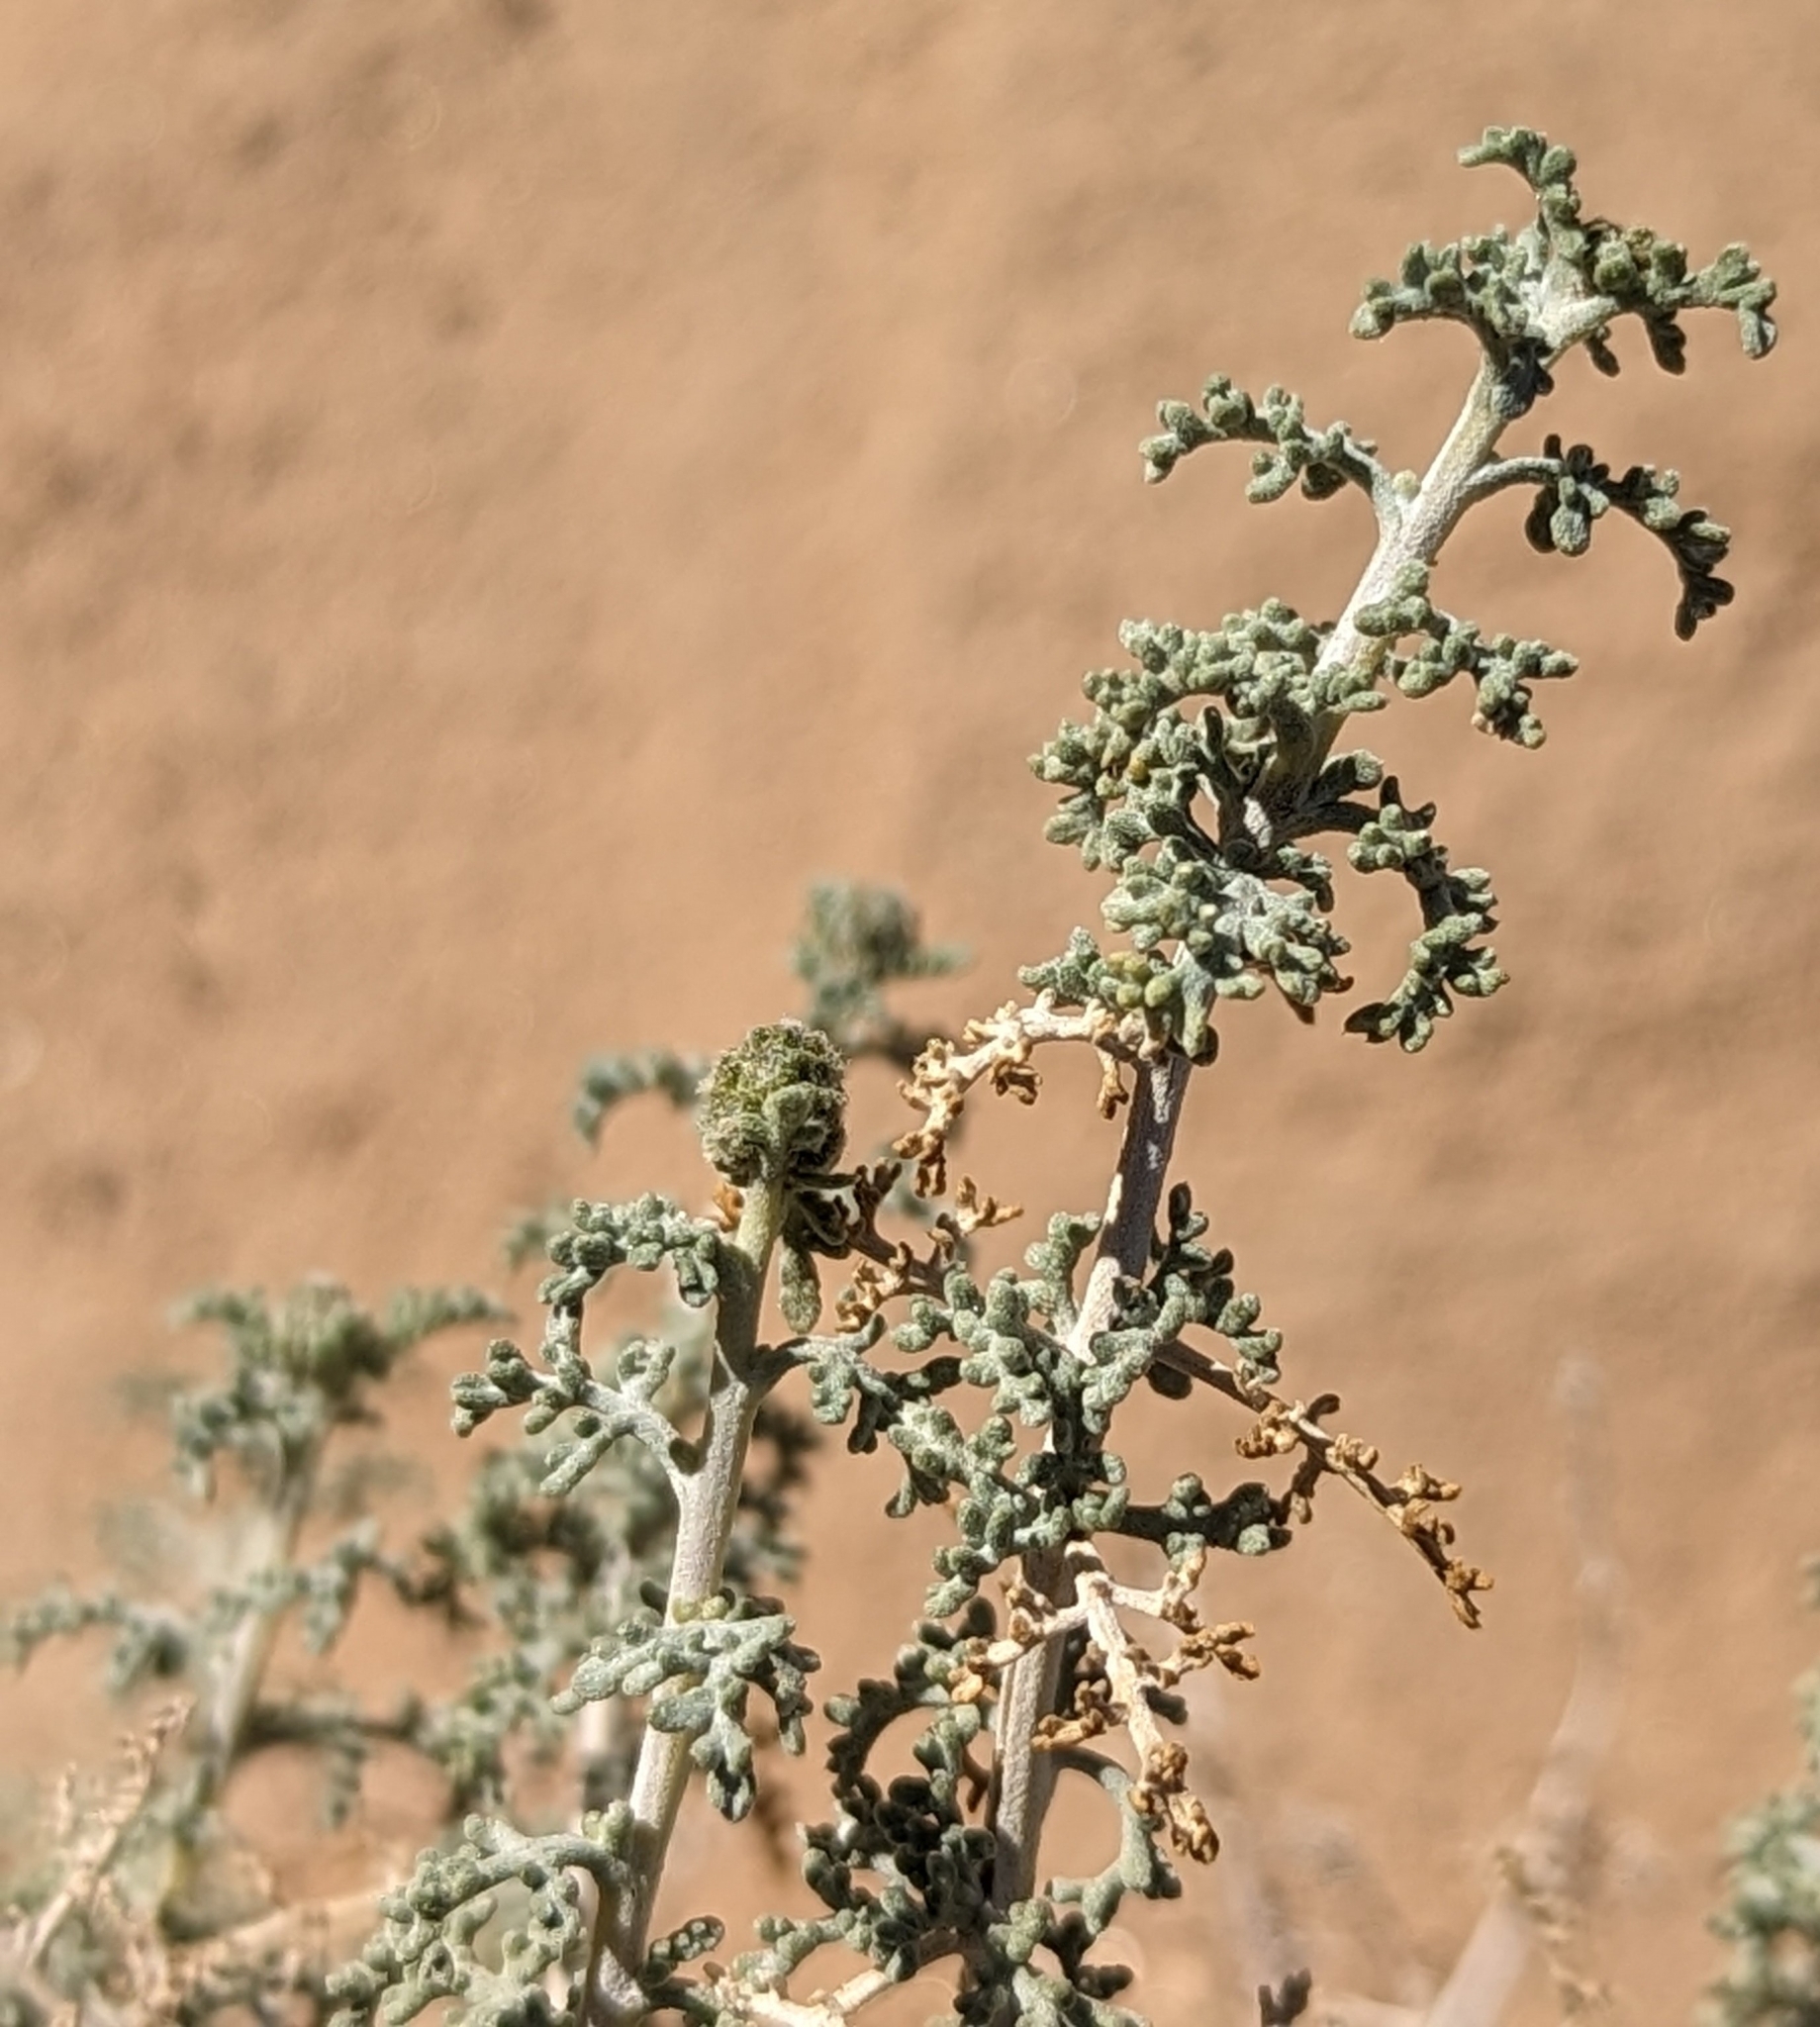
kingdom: Plantae
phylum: Tracheophyta
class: Magnoliopsida
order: Asterales
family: Asteraceae
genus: Ambrosia
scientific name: Ambrosia dumosa
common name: Bur-sage
